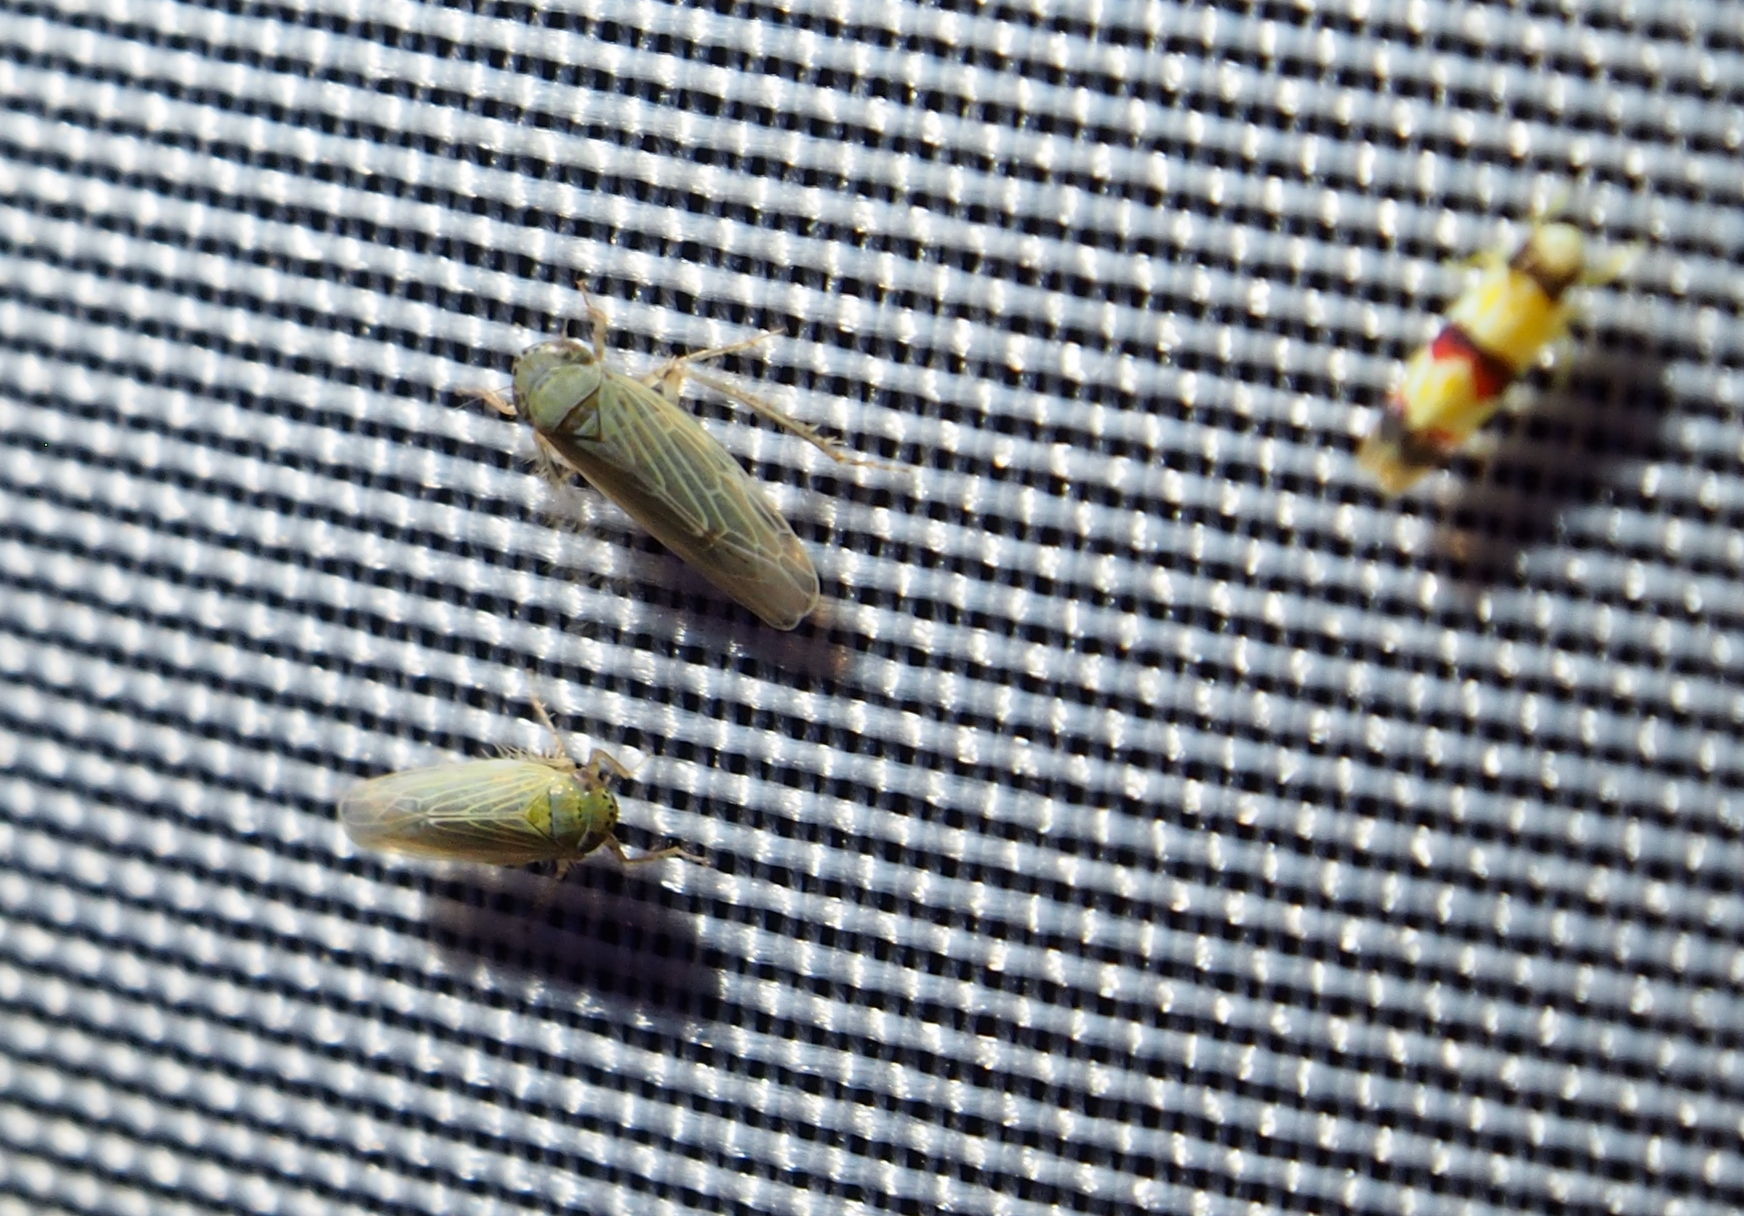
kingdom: Animalia
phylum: Arthropoda
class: Insecta
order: Hemiptera
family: Cicadellidae
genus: Erythroneura
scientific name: Erythroneura integra
